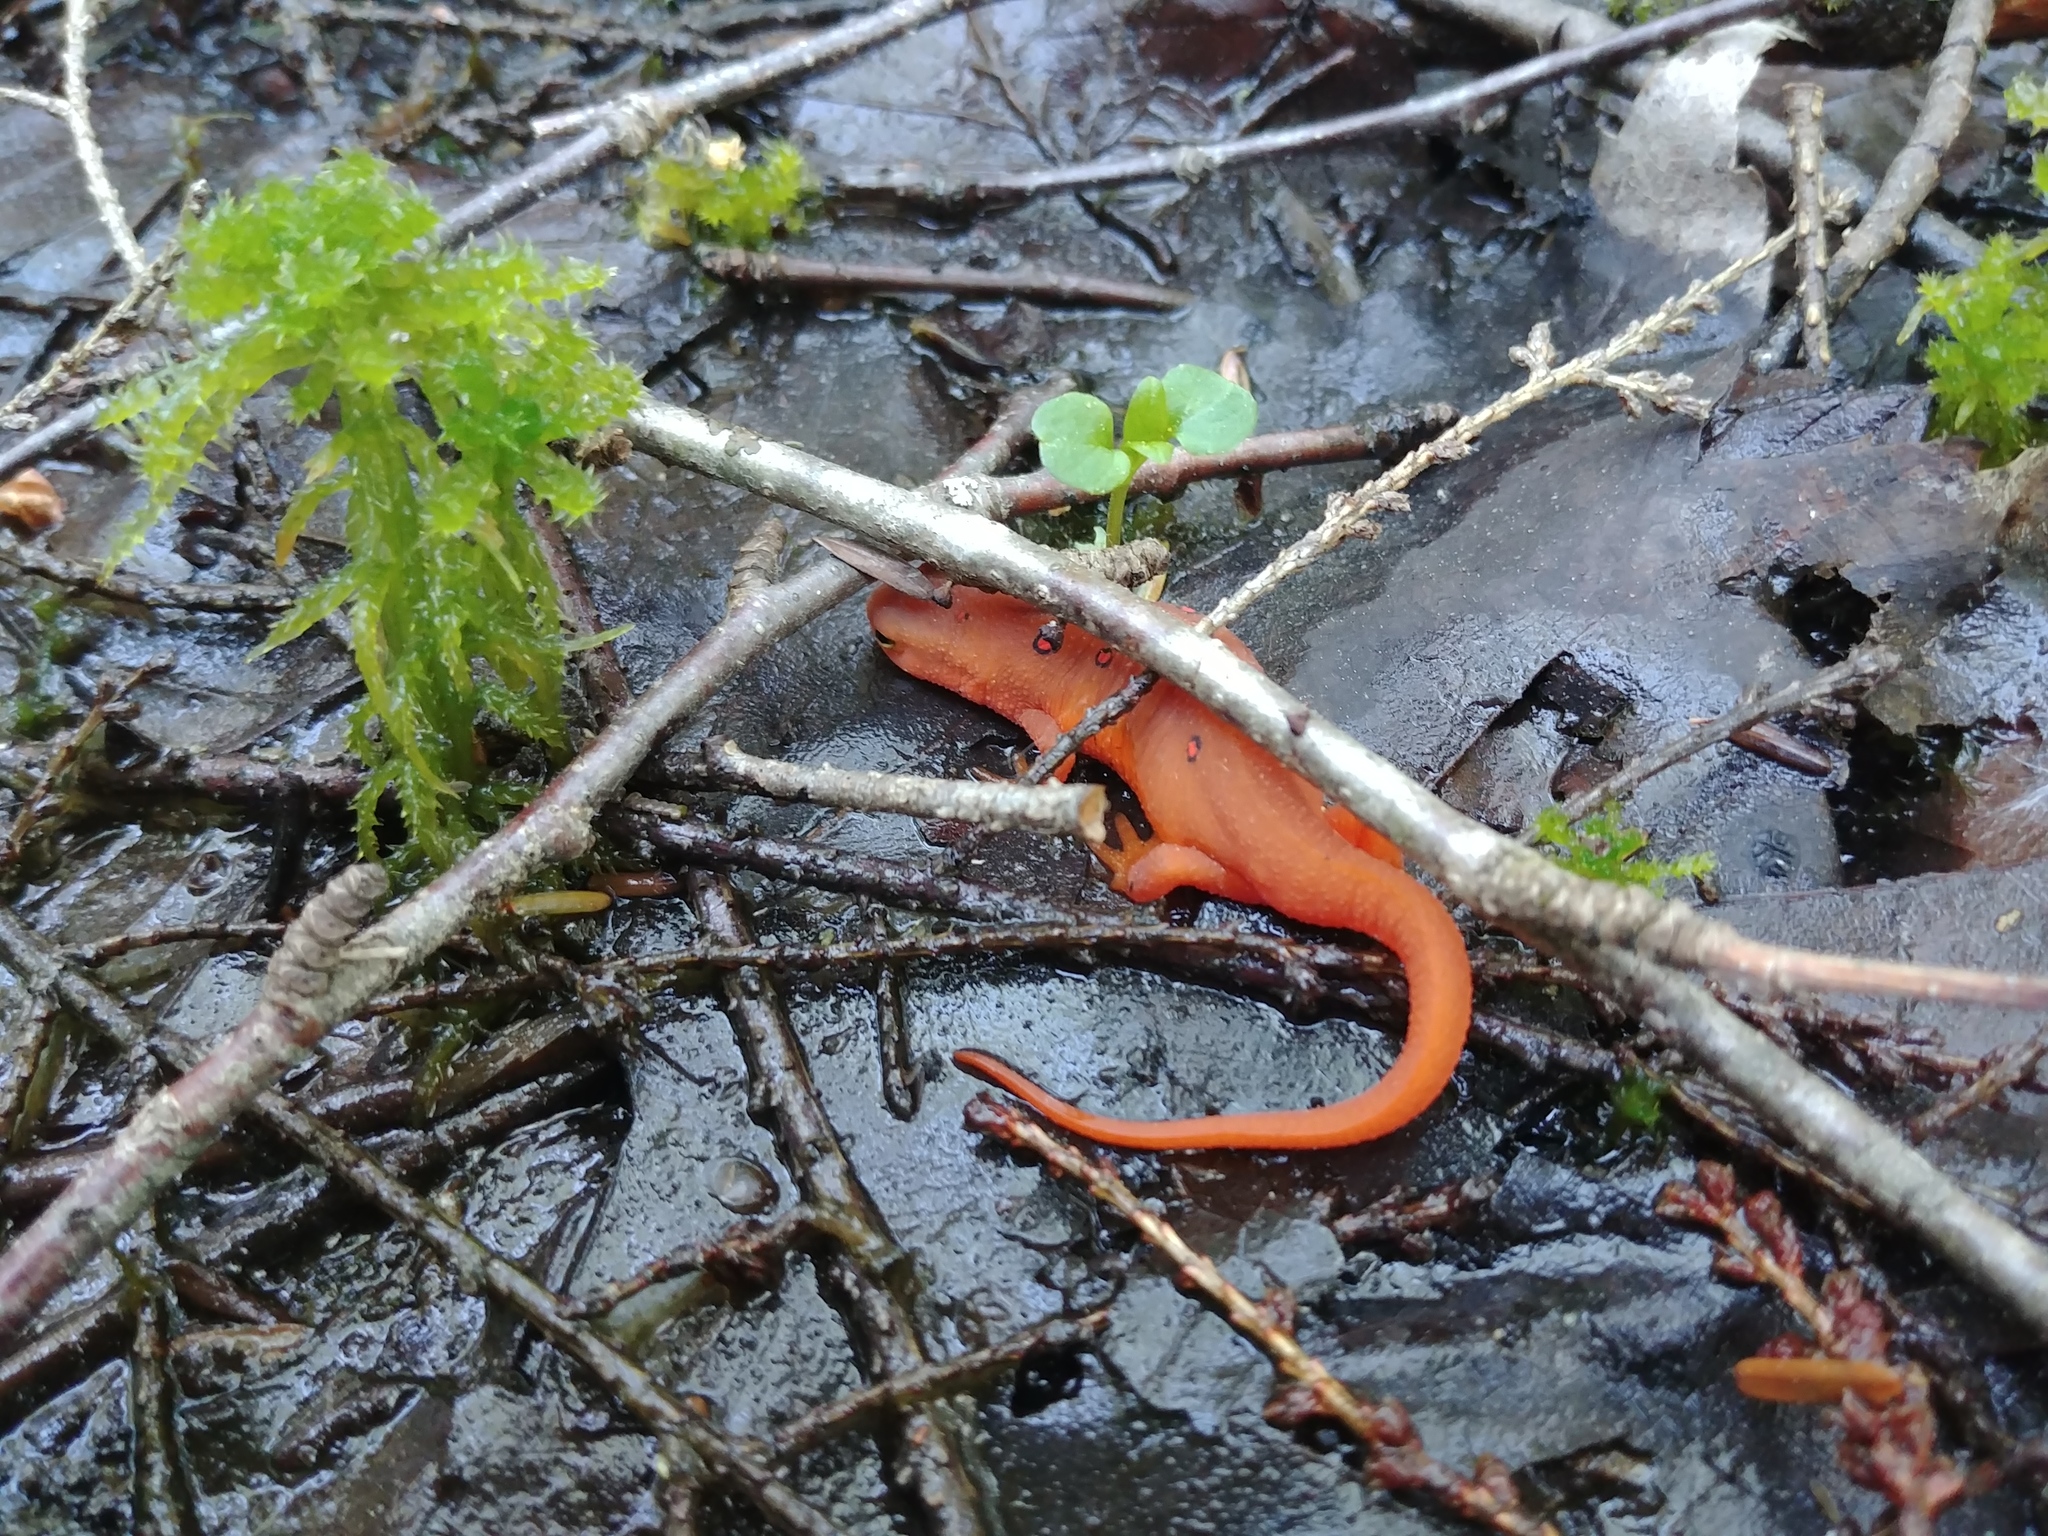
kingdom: Animalia
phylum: Chordata
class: Amphibia
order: Caudata
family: Salamandridae
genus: Notophthalmus
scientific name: Notophthalmus viridescens
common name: Eastern newt
